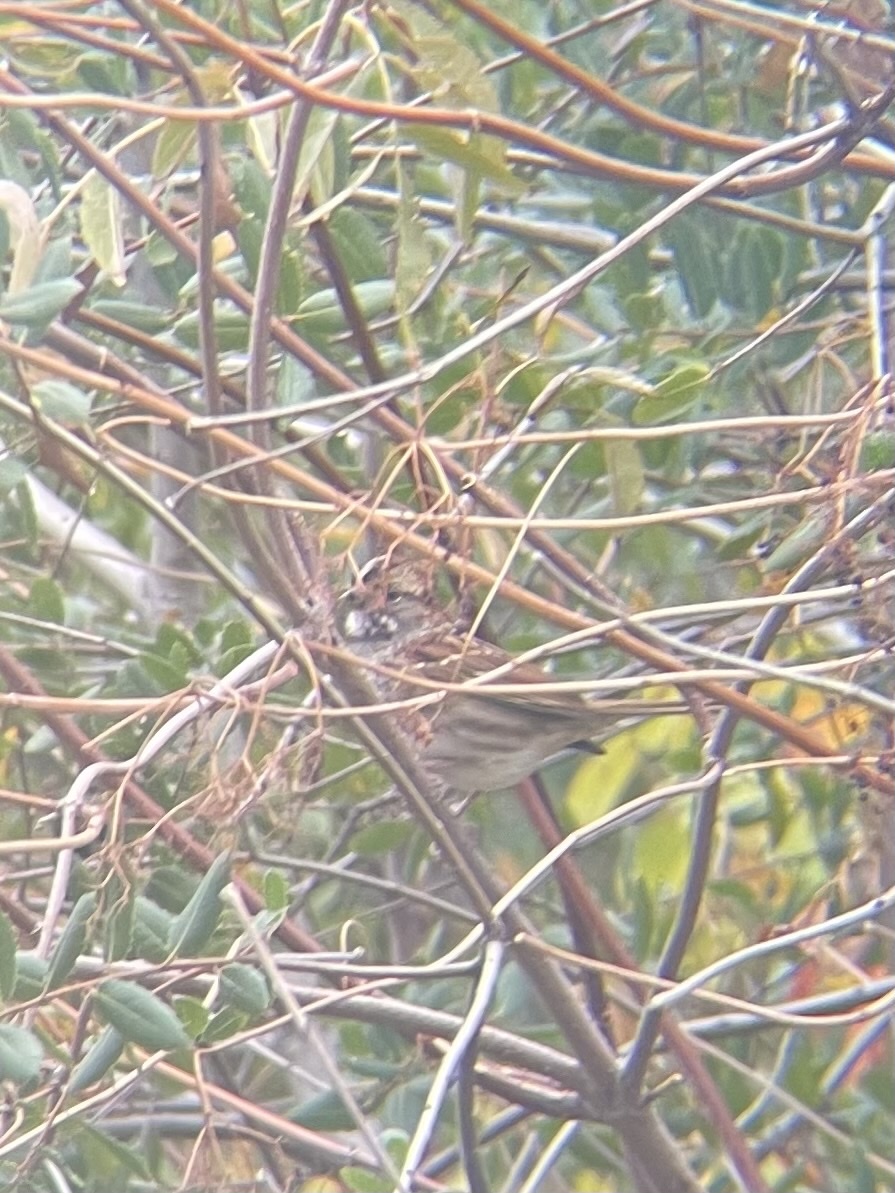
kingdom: Animalia
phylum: Chordata
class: Aves
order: Passeriformes
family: Passerellidae
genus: Zonotrichia
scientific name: Zonotrichia albicollis
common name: White-throated sparrow
